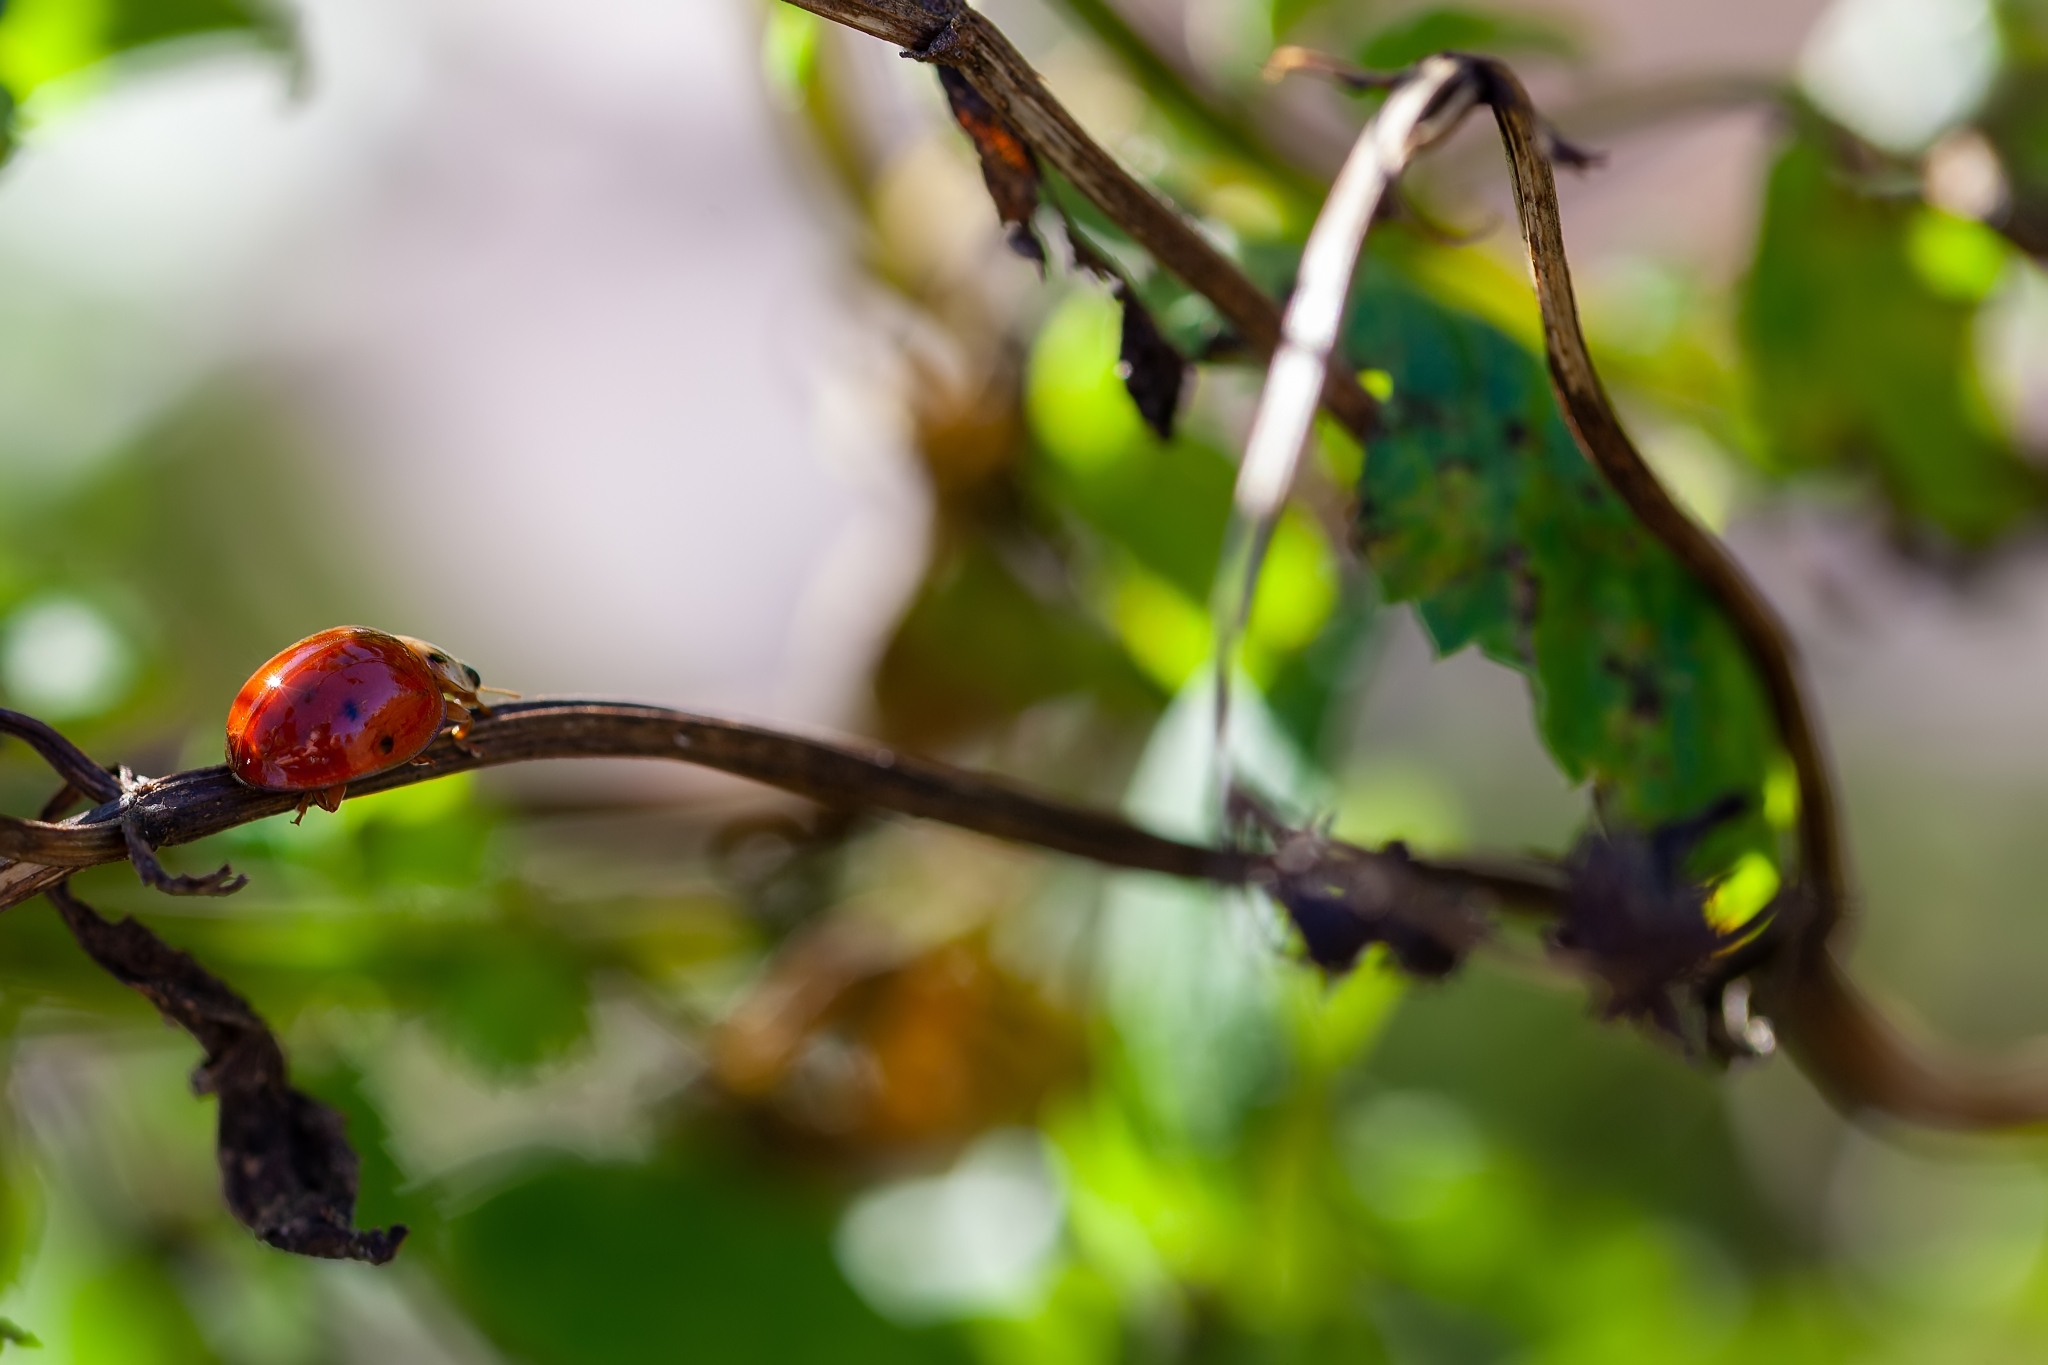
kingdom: Animalia
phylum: Arthropoda
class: Insecta
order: Coleoptera
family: Coccinellidae
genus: Harmonia
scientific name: Harmonia axyridis
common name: Harlequin ladybird
